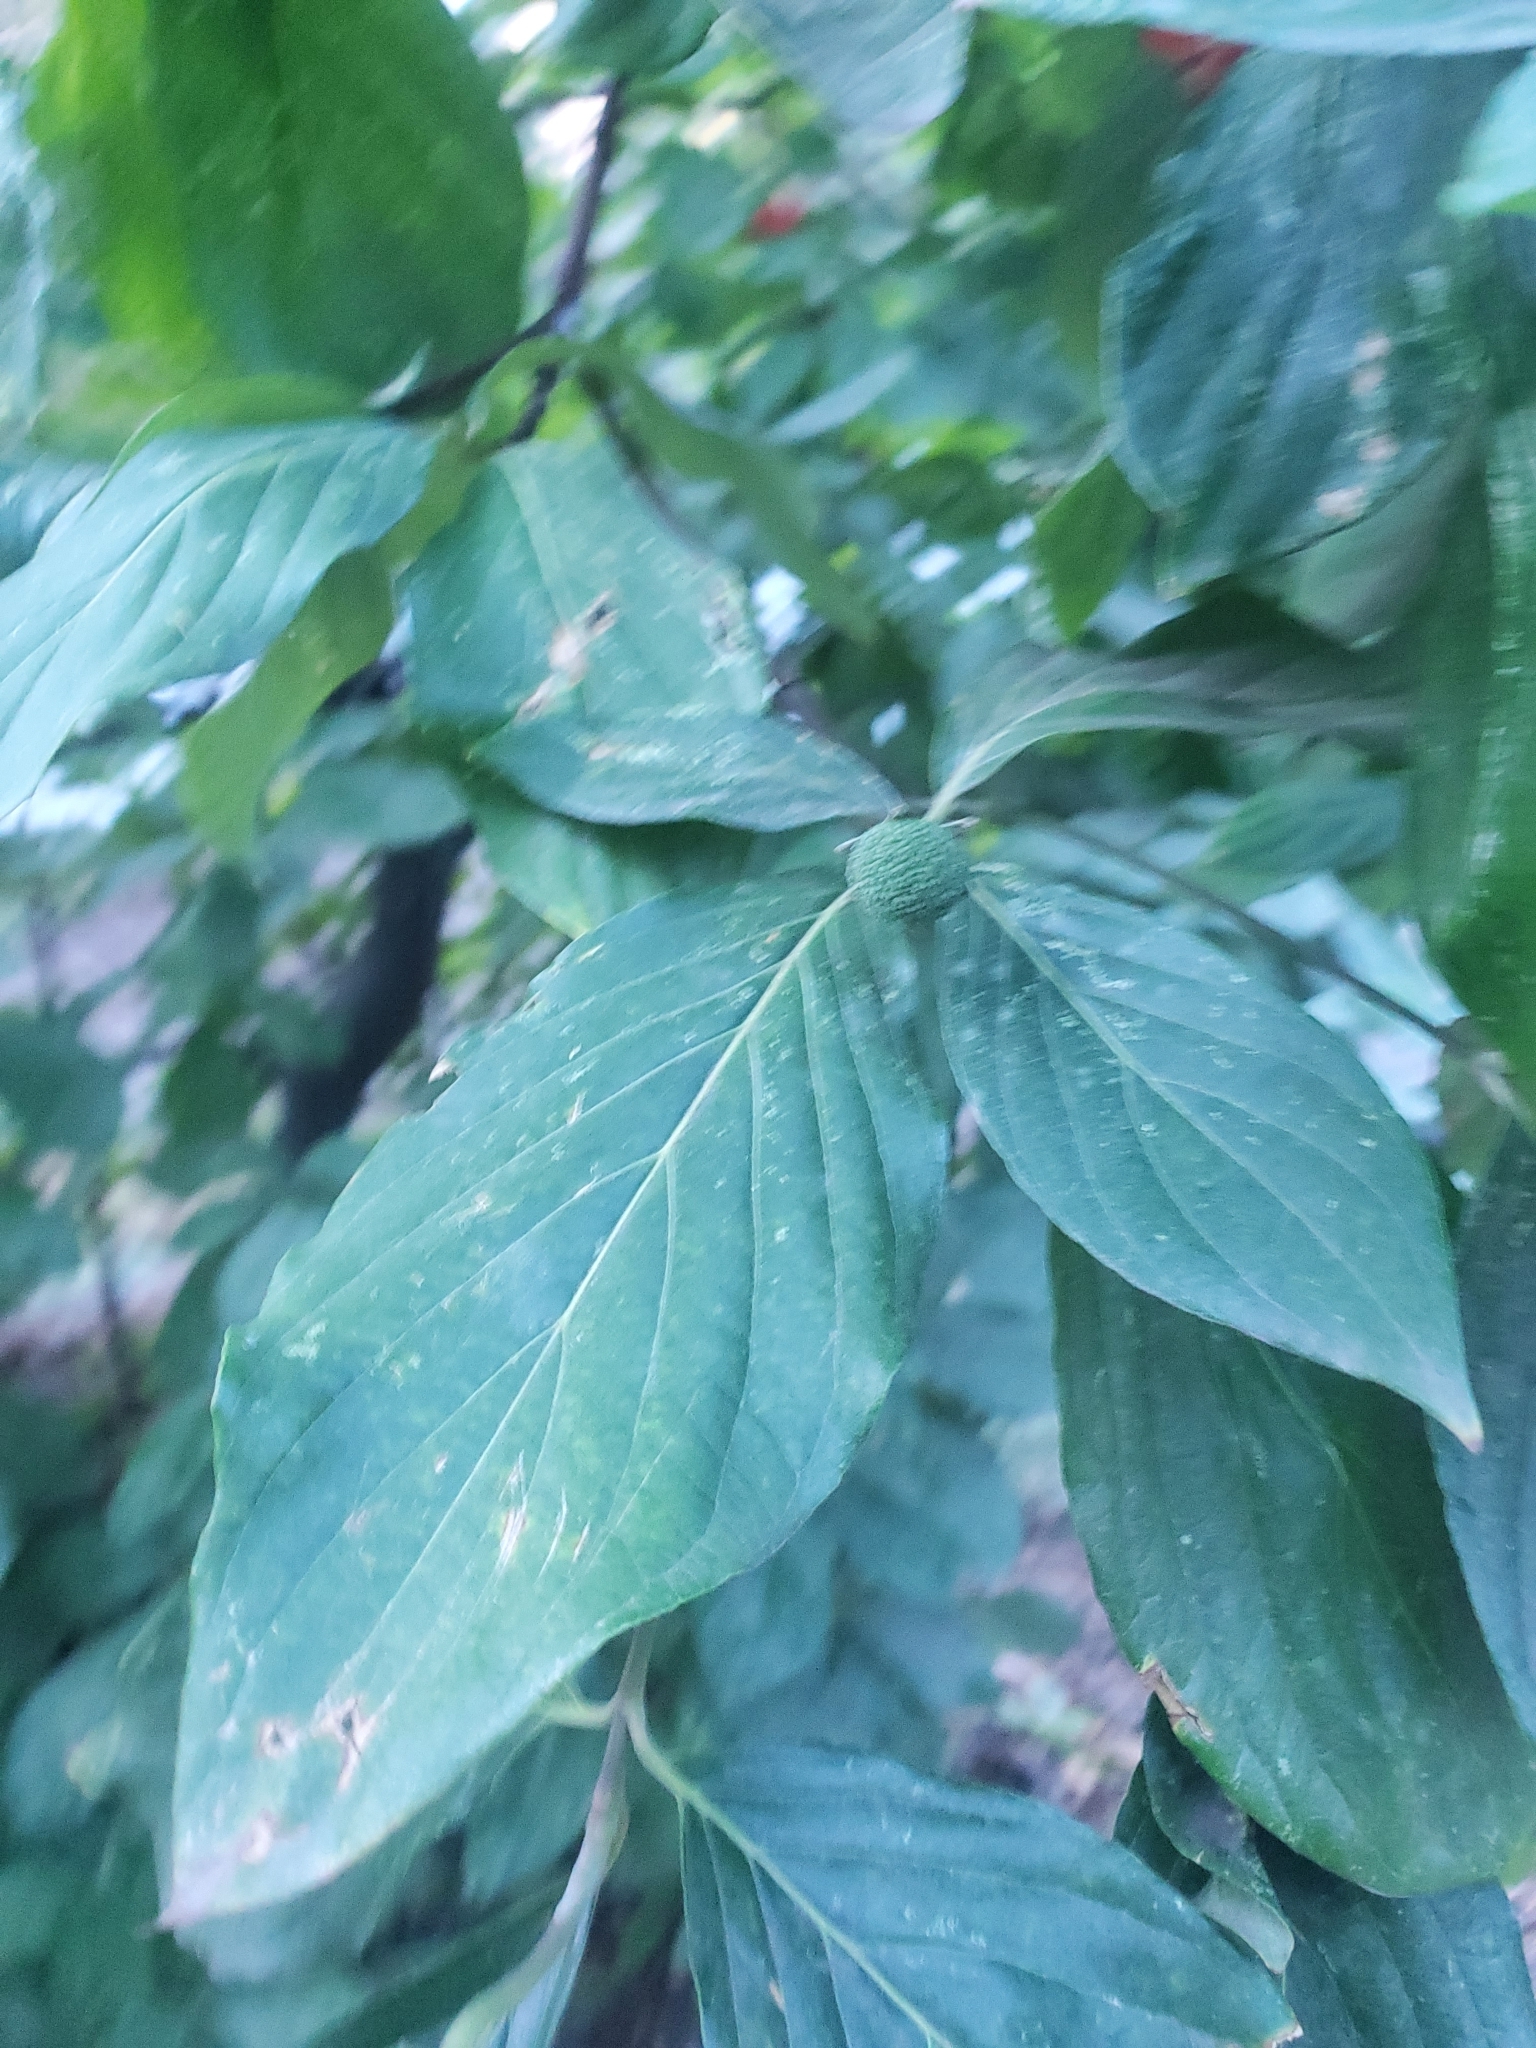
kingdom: Plantae
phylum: Tracheophyta
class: Magnoliopsida
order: Cornales
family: Cornaceae
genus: Cornus
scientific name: Cornus nuttallii
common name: Pacific dogwood
